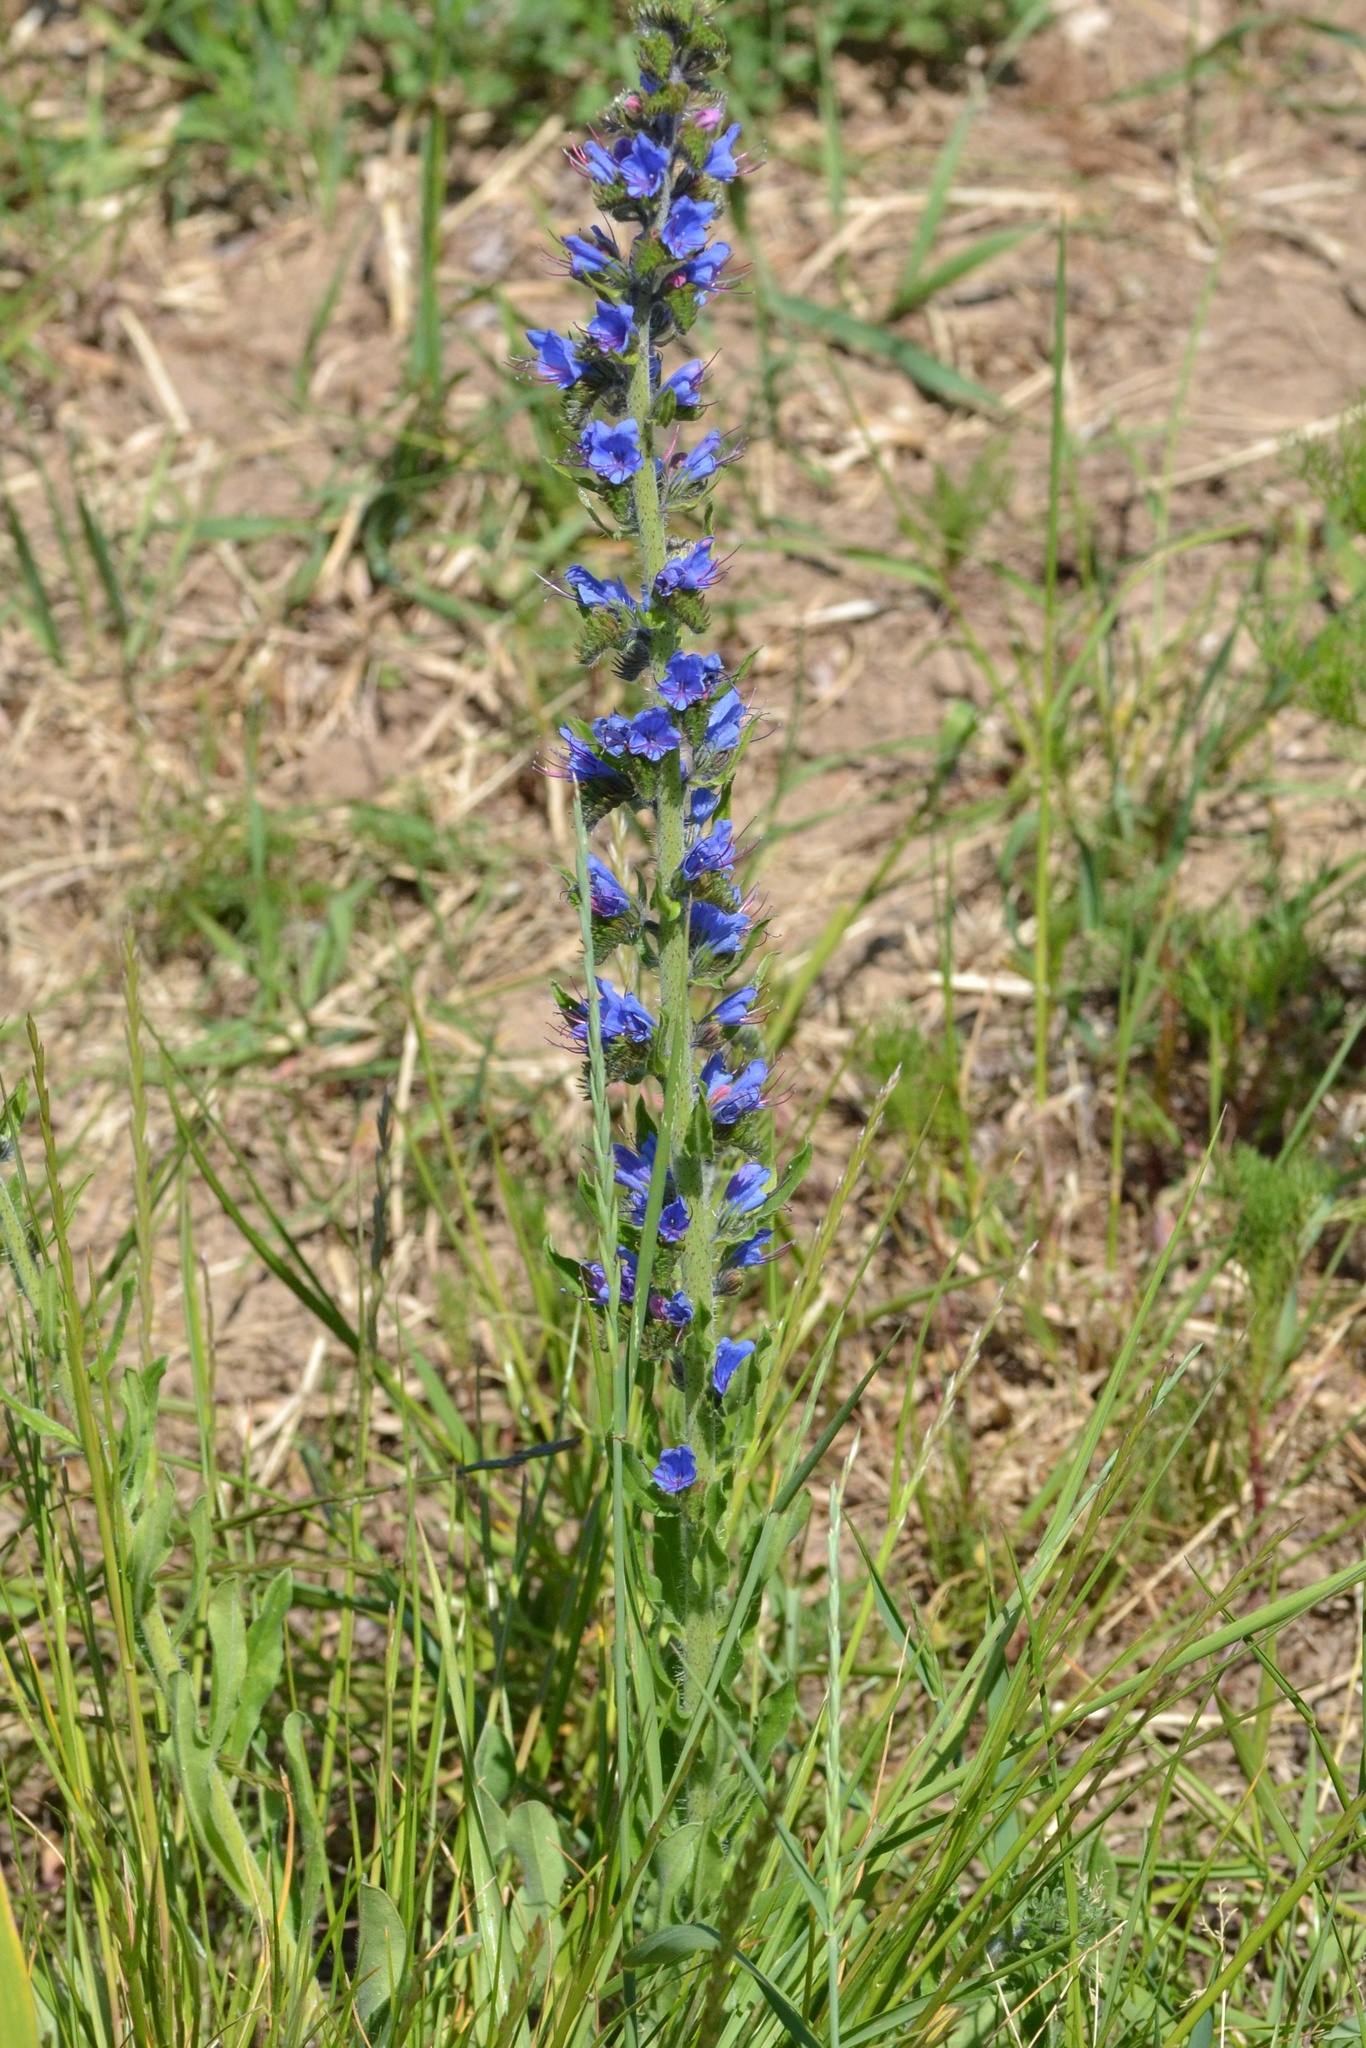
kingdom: Plantae
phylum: Tracheophyta
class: Magnoliopsida
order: Boraginales
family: Boraginaceae
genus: Echium
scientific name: Echium vulgare
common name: Common viper's bugloss
